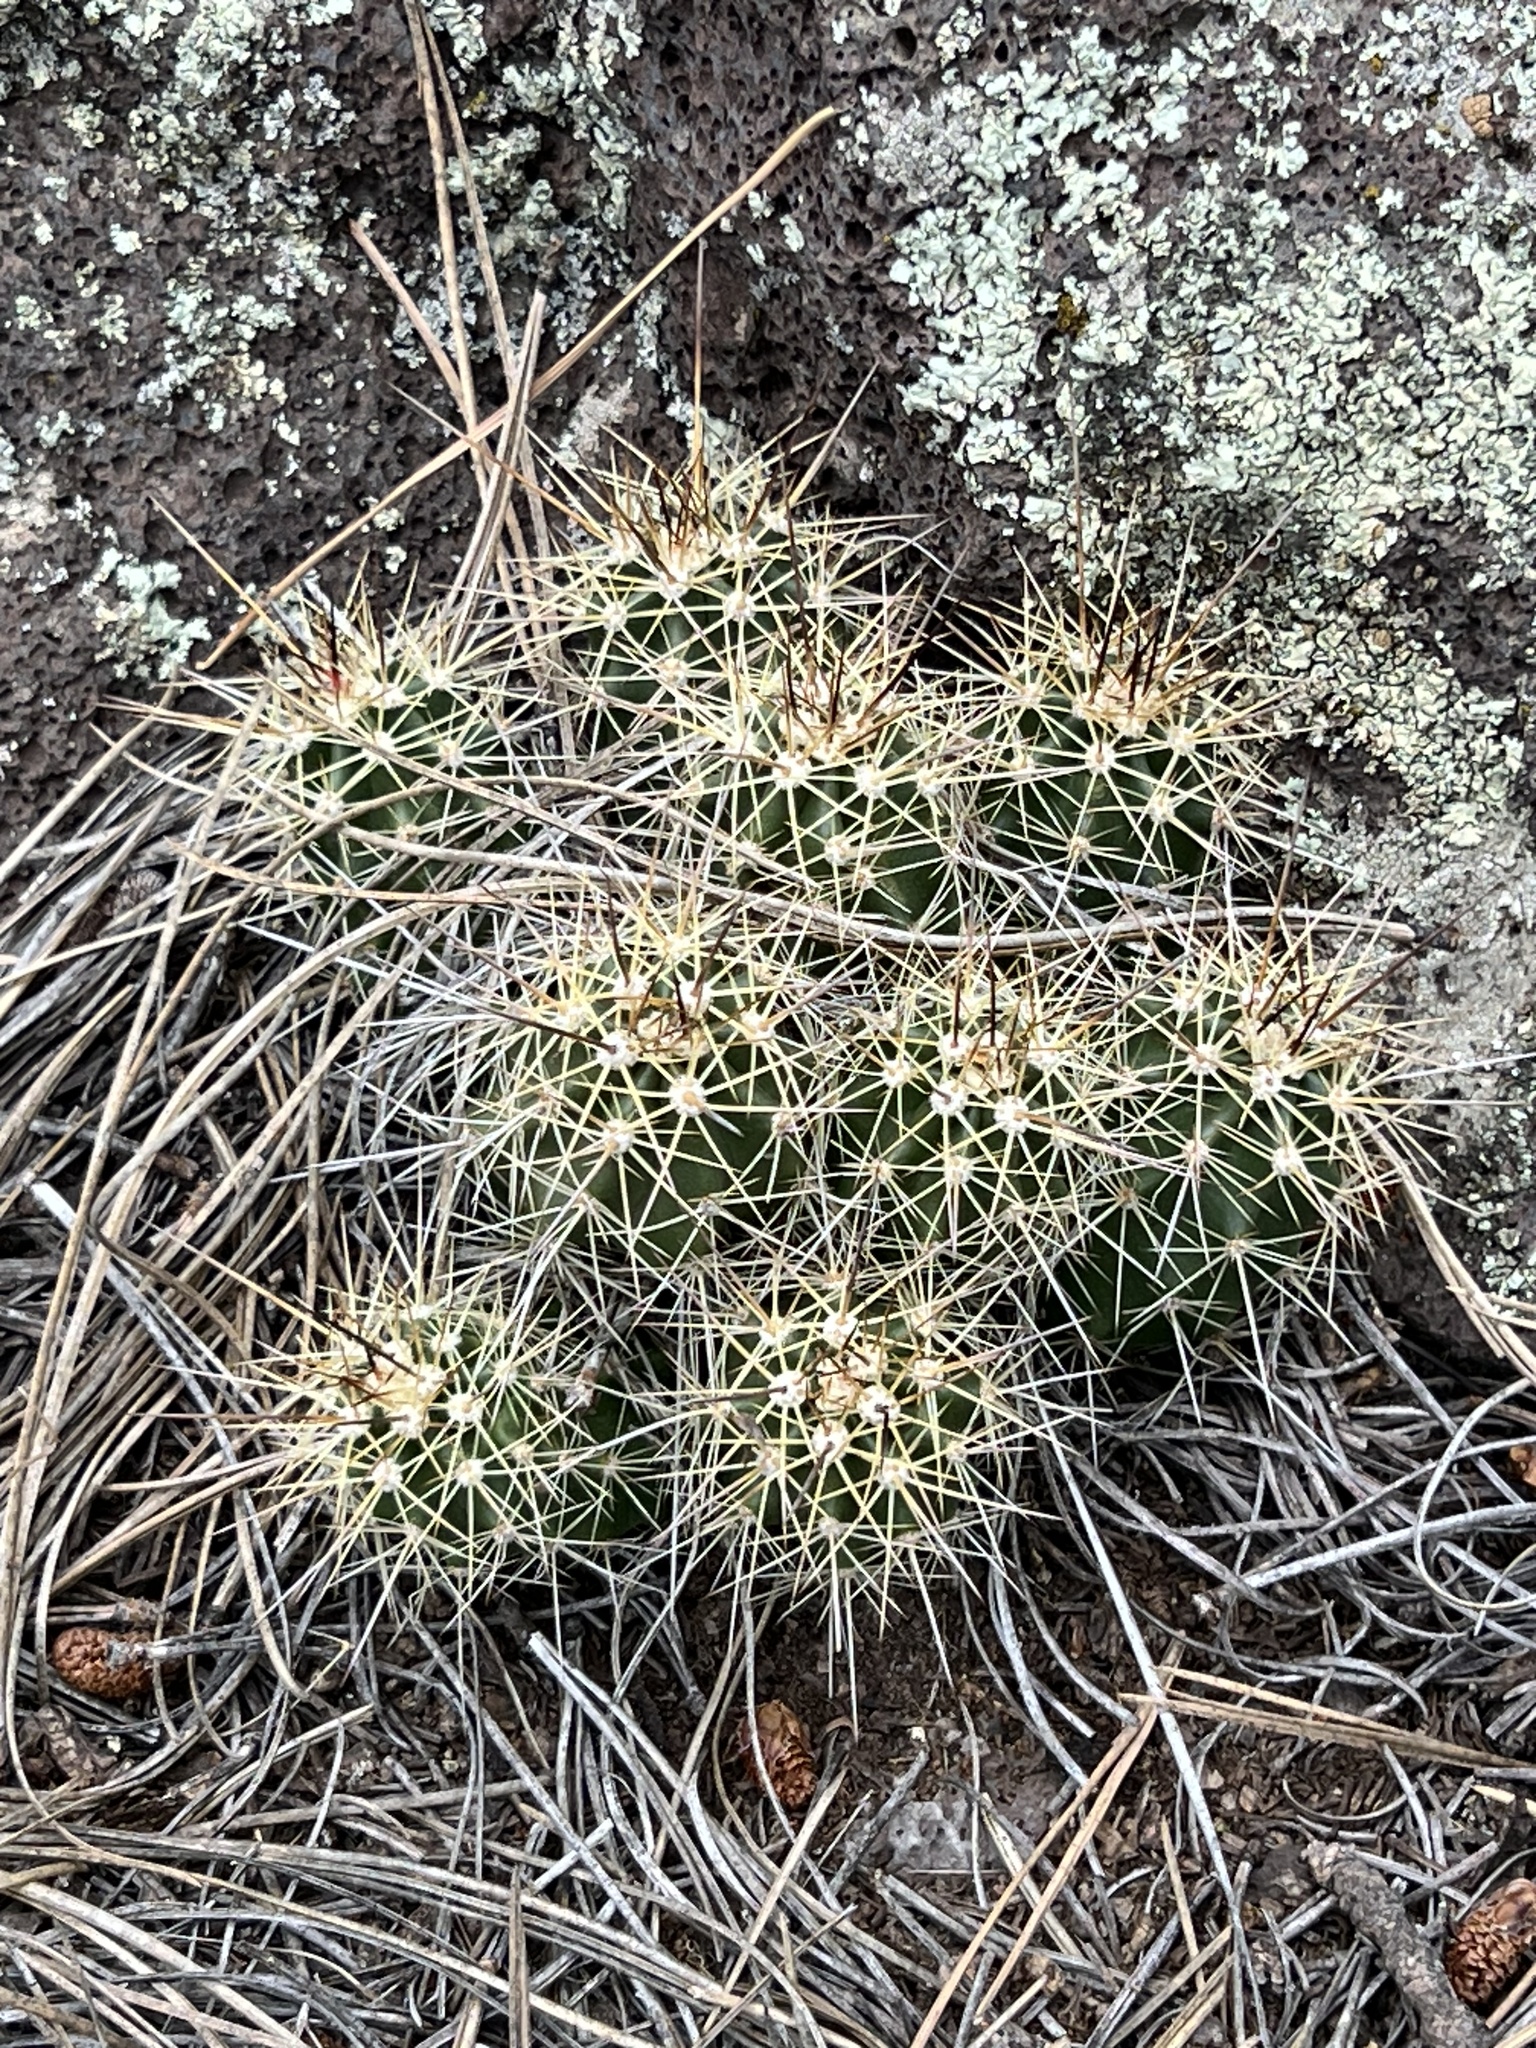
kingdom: Plantae
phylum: Tracheophyta
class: Magnoliopsida
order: Caryophyllales
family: Cactaceae
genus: Echinocereus
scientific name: Echinocereus bakeri
